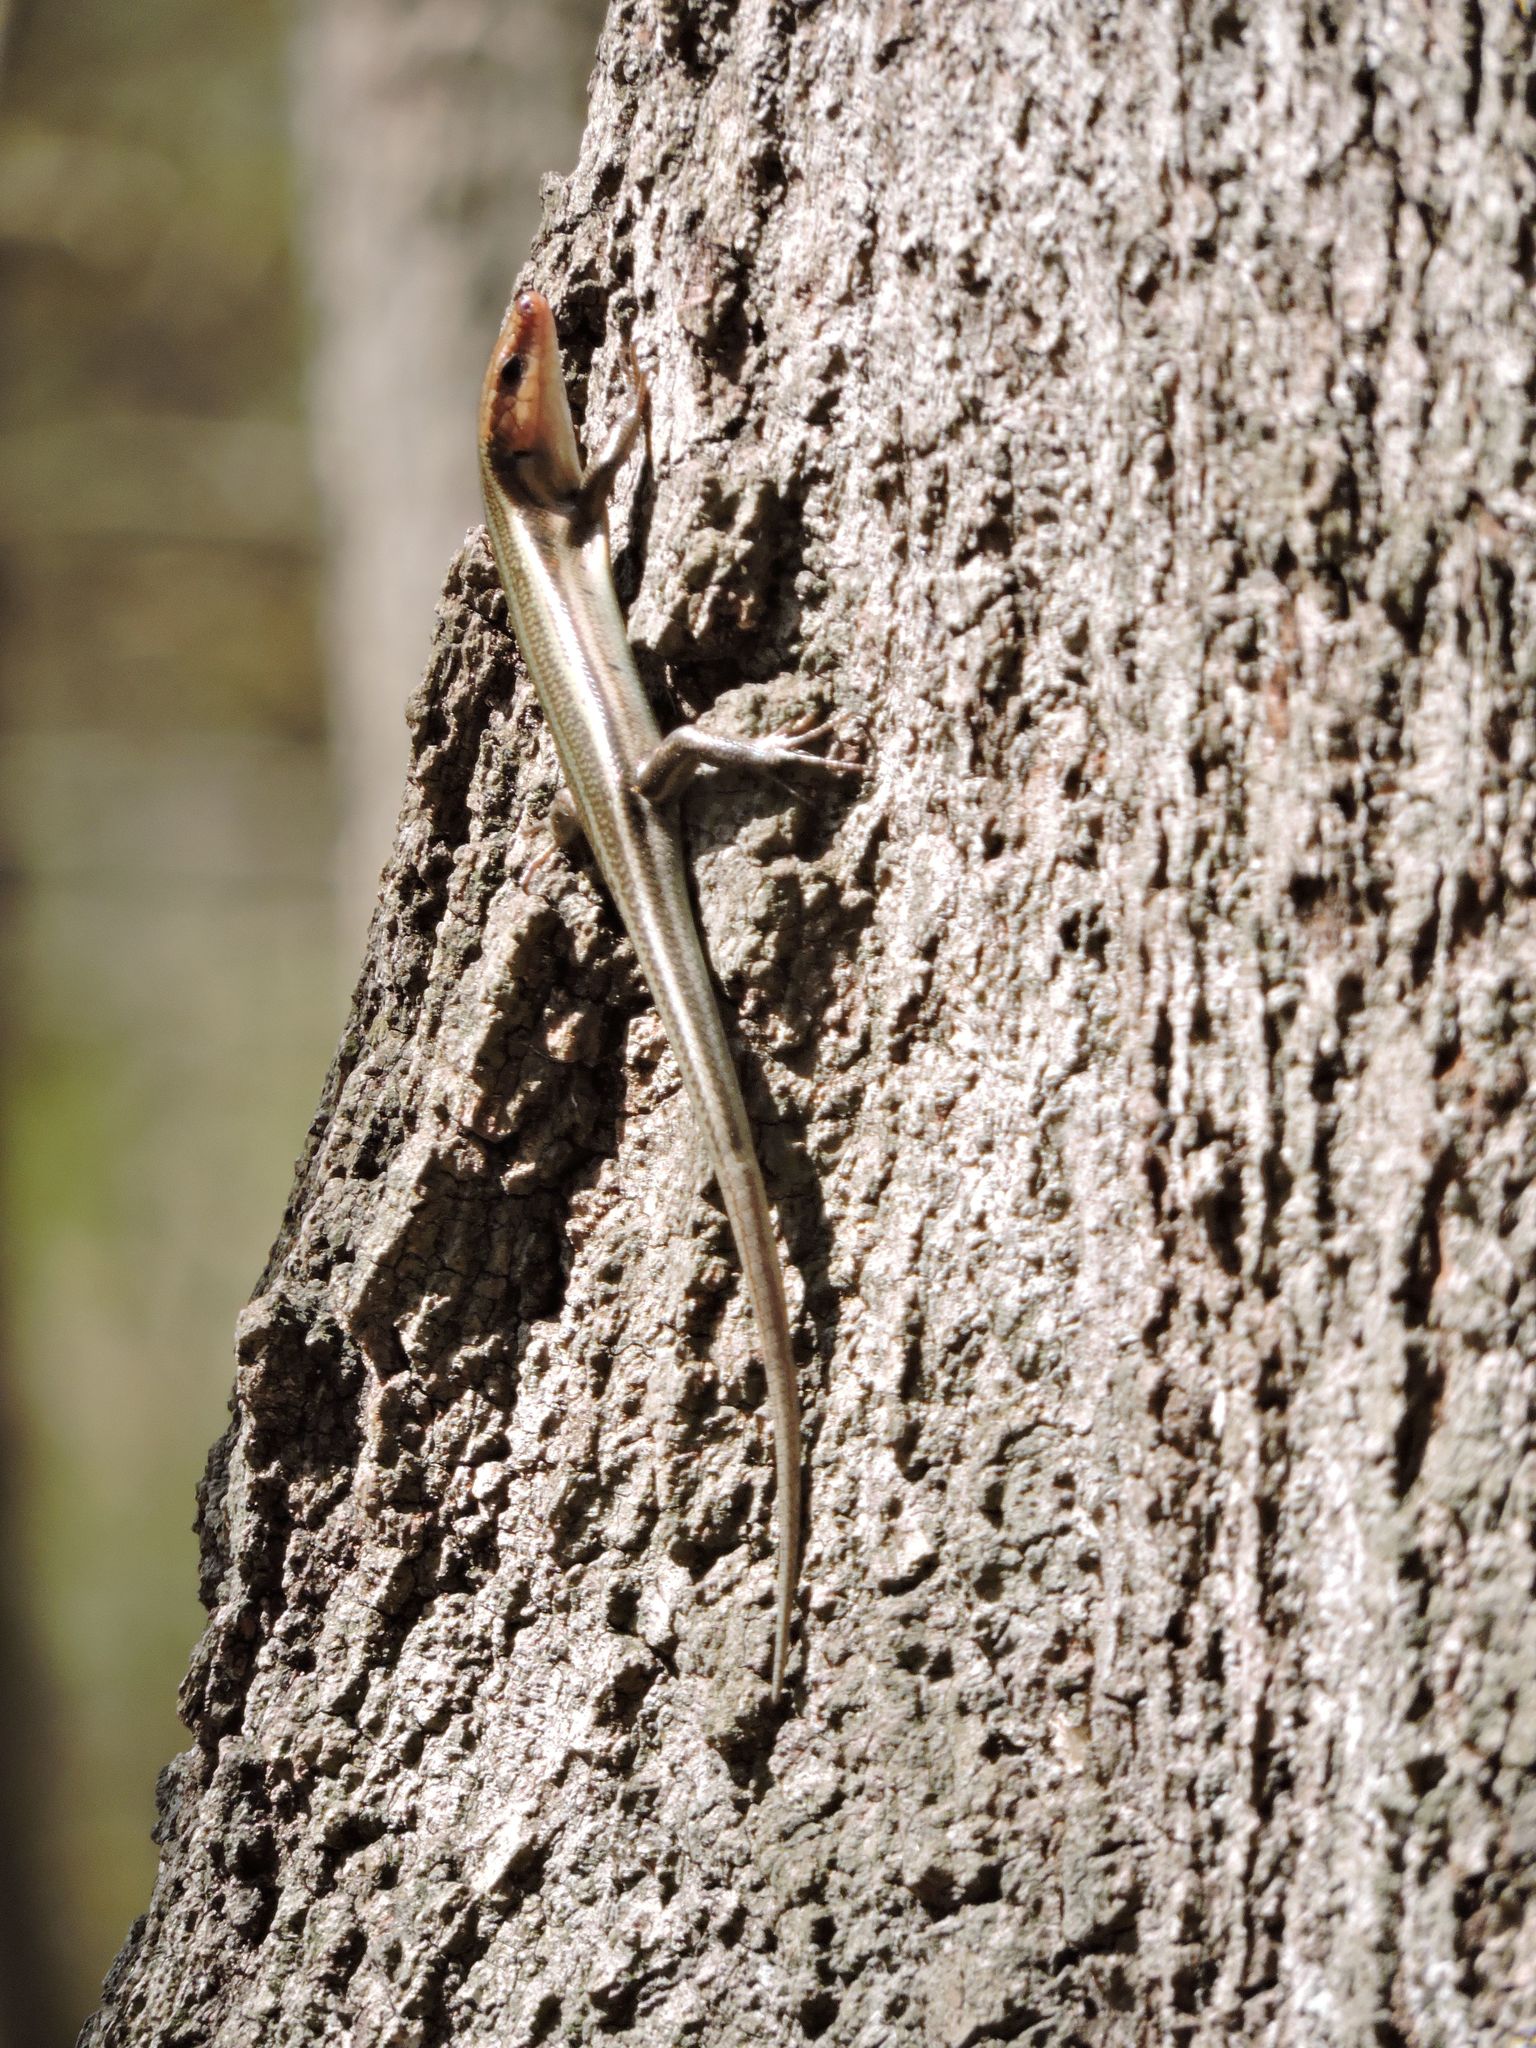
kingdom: Animalia
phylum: Chordata
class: Squamata
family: Scincidae
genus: Plestiodon
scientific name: Plestiodon fasciatus
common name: Five-lined skink
